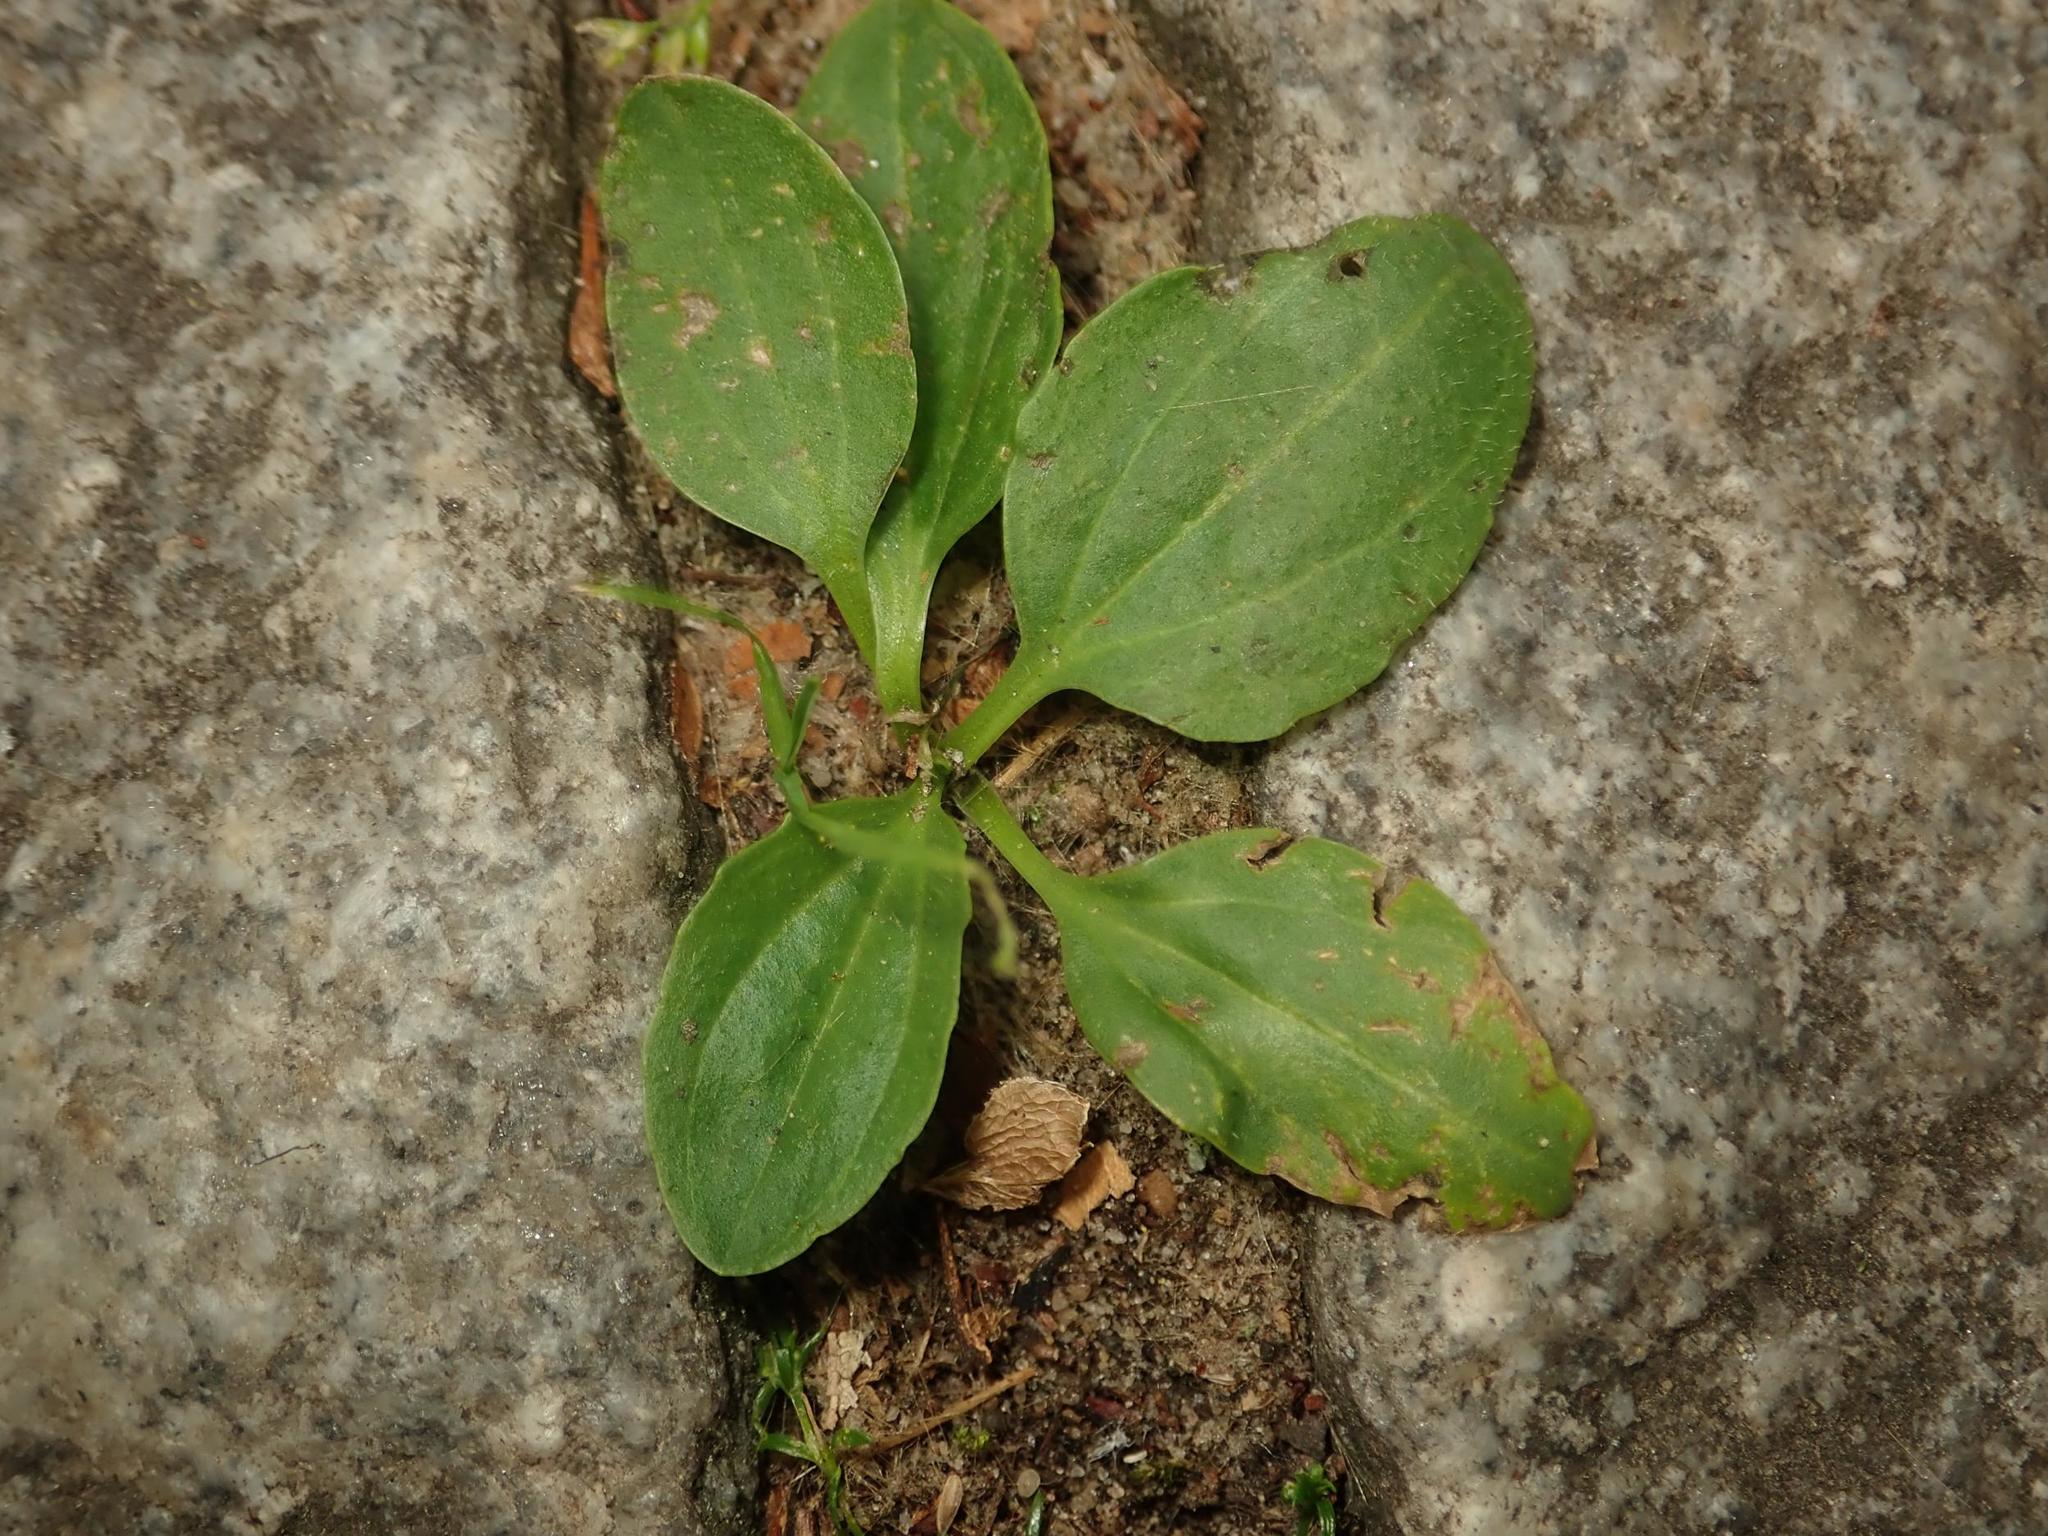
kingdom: Plantae
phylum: Tracheophyta
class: Magnoliopsida
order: Lamiales
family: Plantaginaceae
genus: Plantago
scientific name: Plantago major
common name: Common plantain
